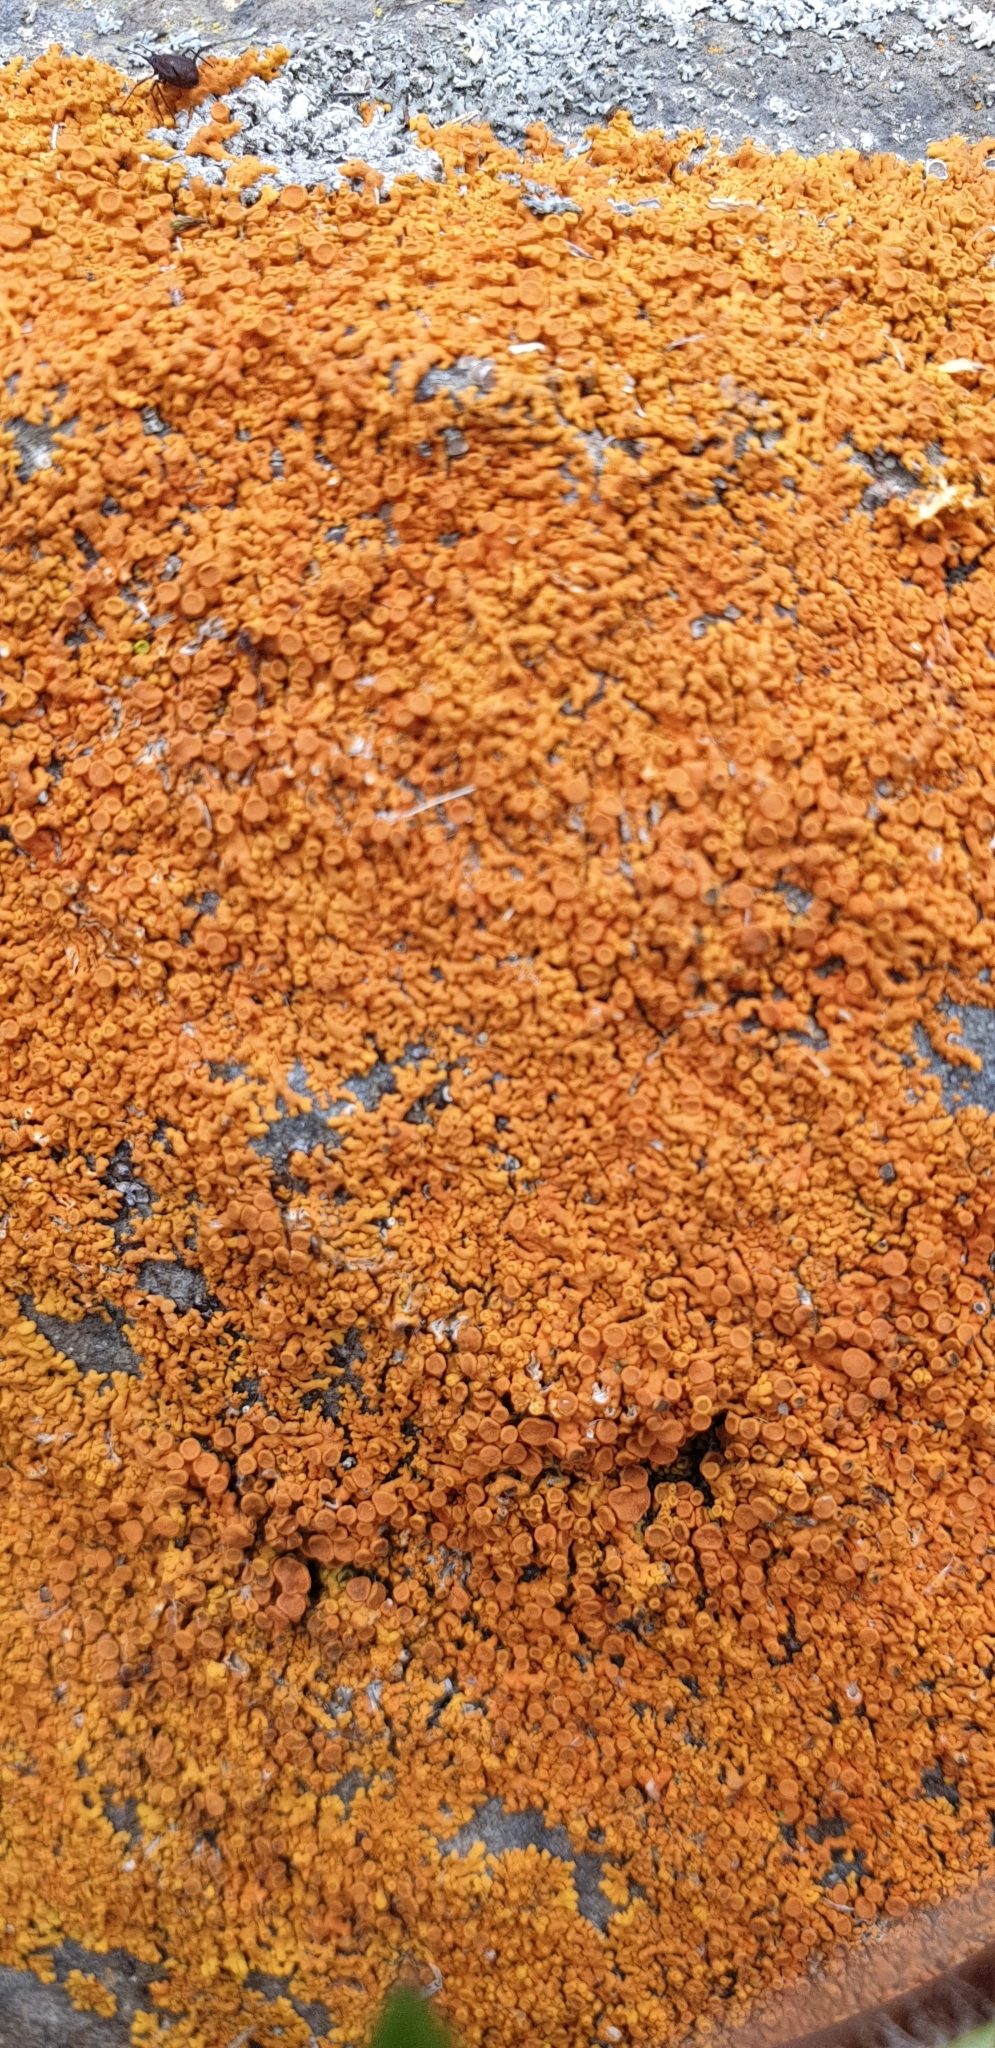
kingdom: Fungi
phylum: Ascomycota
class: Lecanoromycetes
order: Teloschistales
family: Teloschistaceae
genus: Xanthoria
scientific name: Xanthoria elegans
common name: Elegant sunburst lichen
